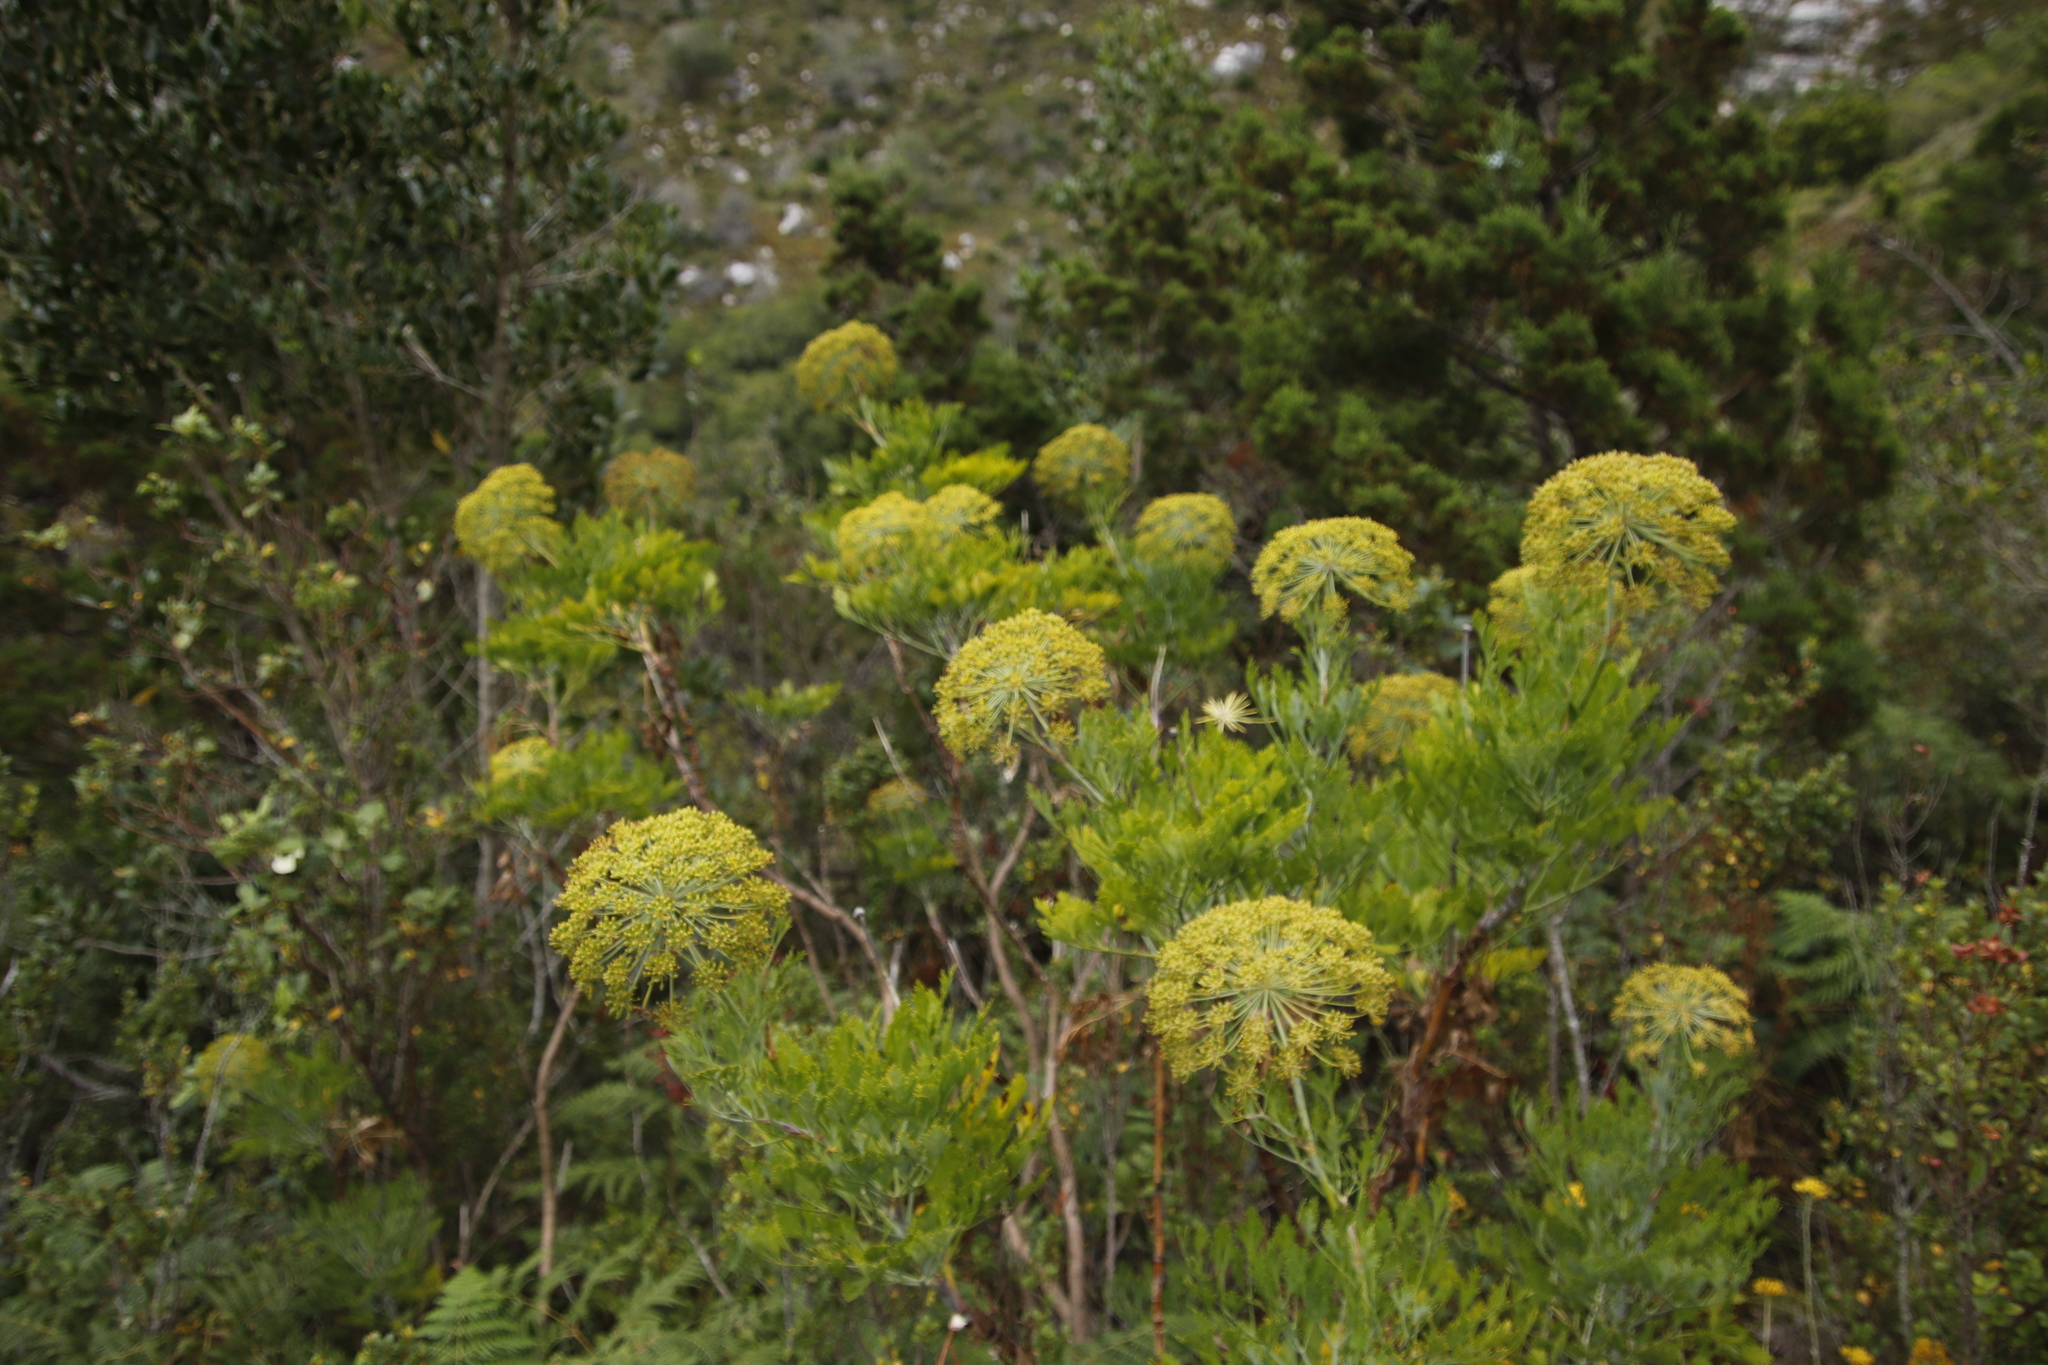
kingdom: Plantae
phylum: Tracheophyta
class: Magnoliopsida
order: Apiales
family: Apiaceae
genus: Notobubon
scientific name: Notobubon galbanum
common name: Blisterbush
